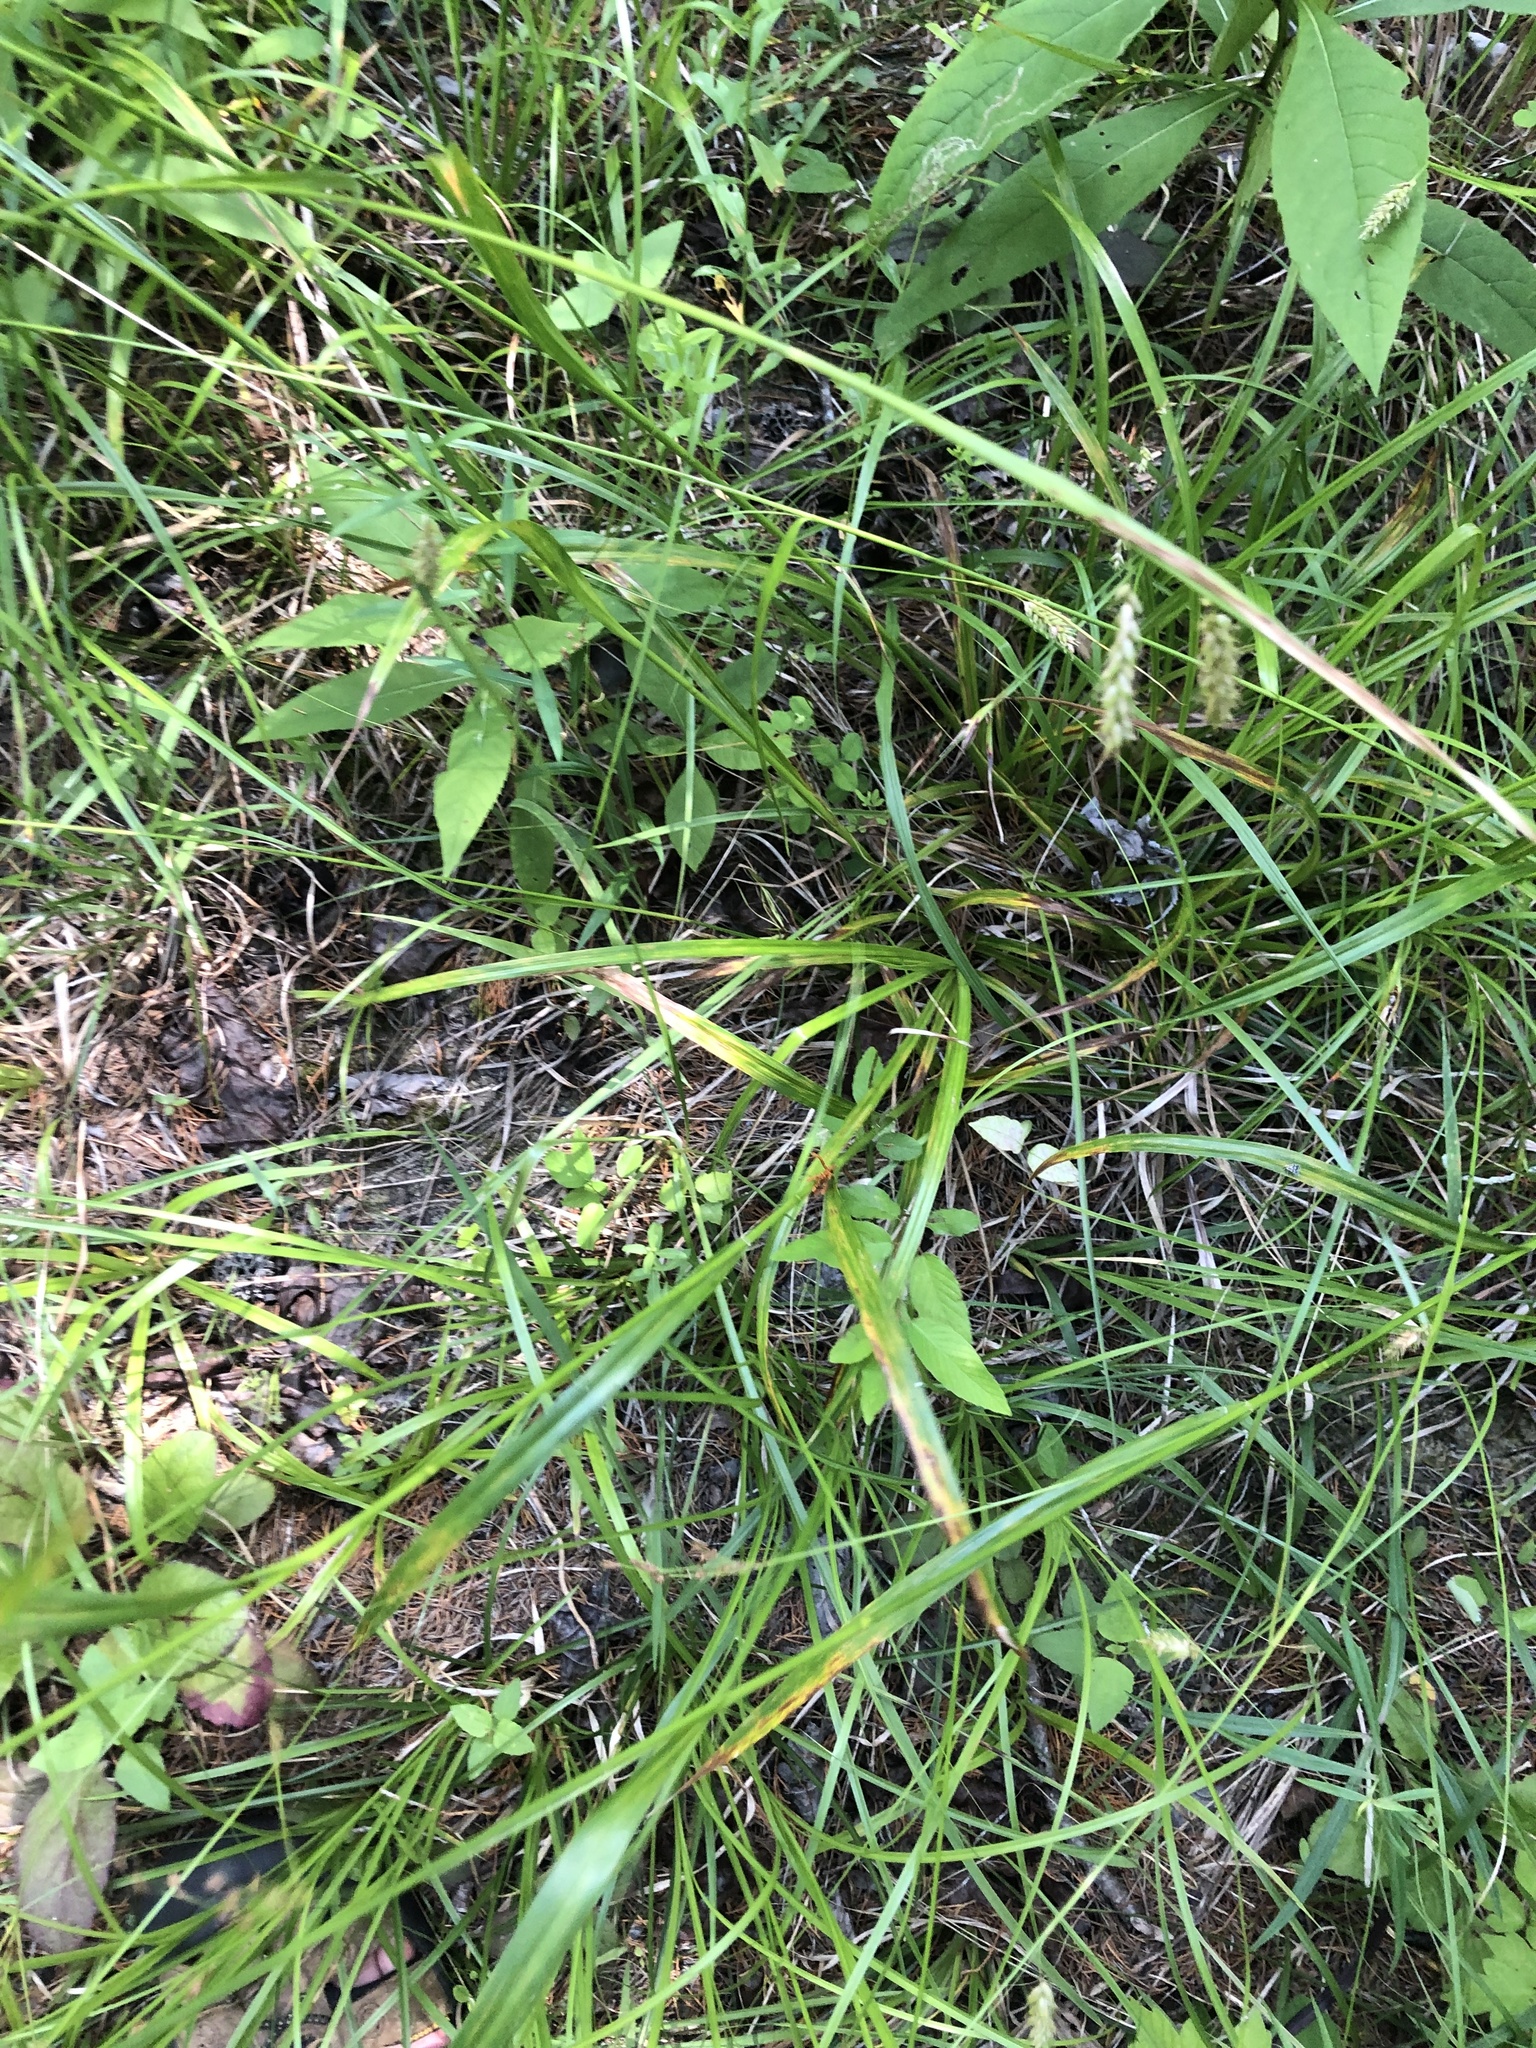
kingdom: Plantae
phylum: Tracheophyta
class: Liliopsida
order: Poales
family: Cyperaceae
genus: Scirpus
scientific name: Scirpus pendulus
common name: Nodding bulrush
